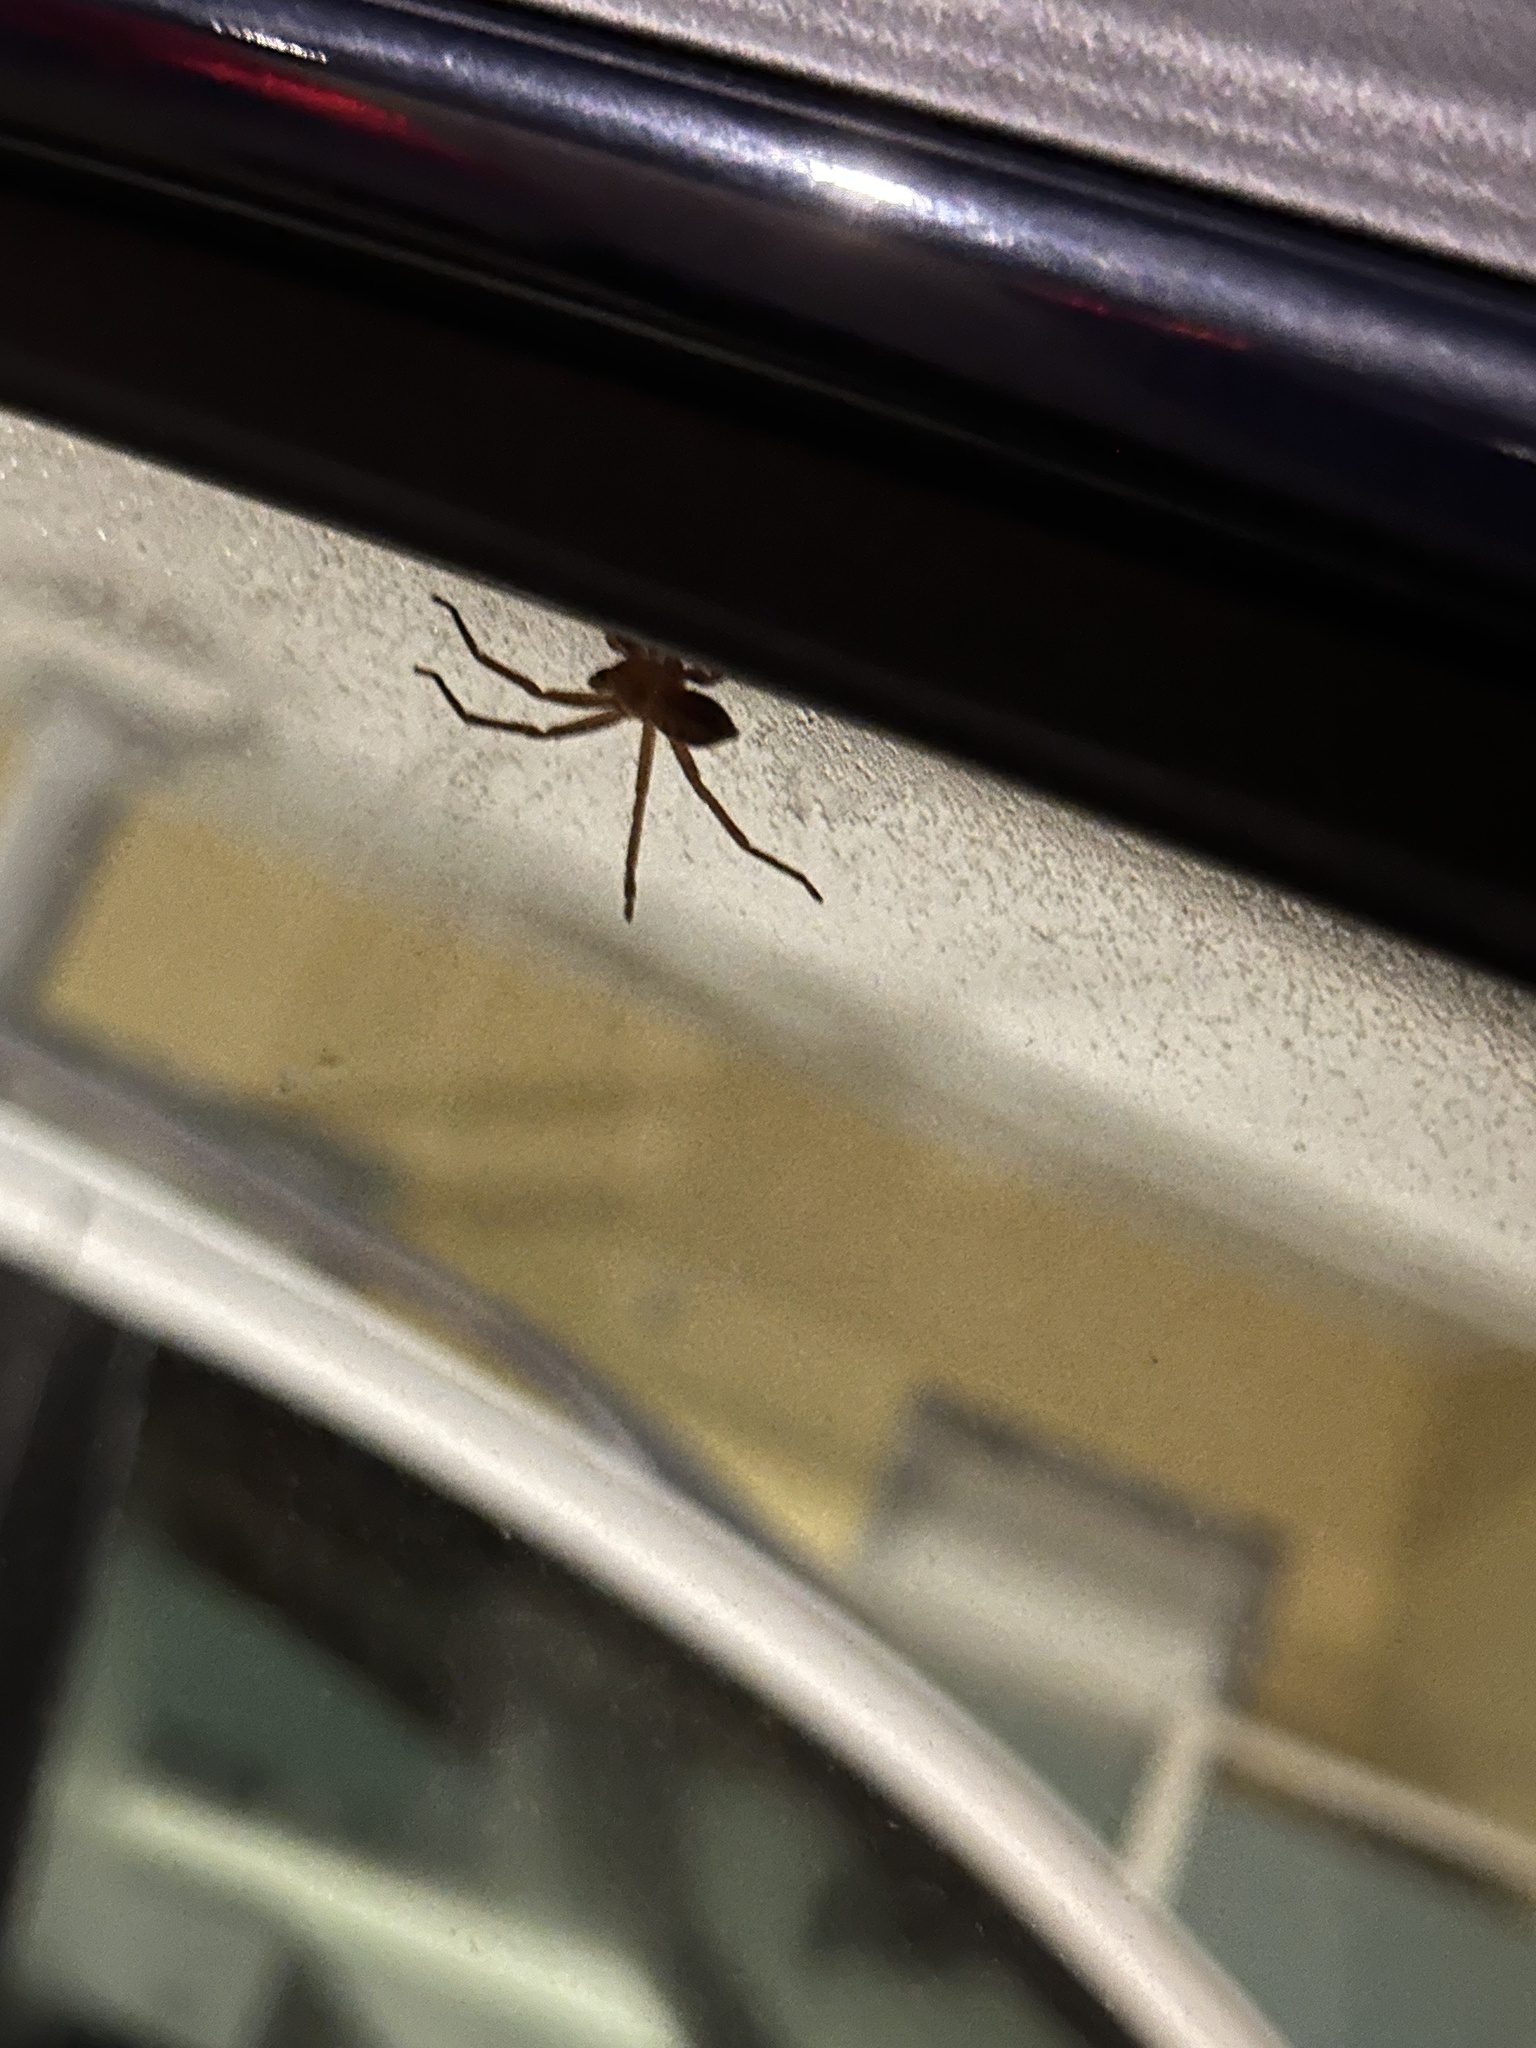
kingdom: Animalia
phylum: Arthropoda
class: Arachnida
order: Araneae
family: Sparassidae
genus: Olios
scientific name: Olios argelasius
